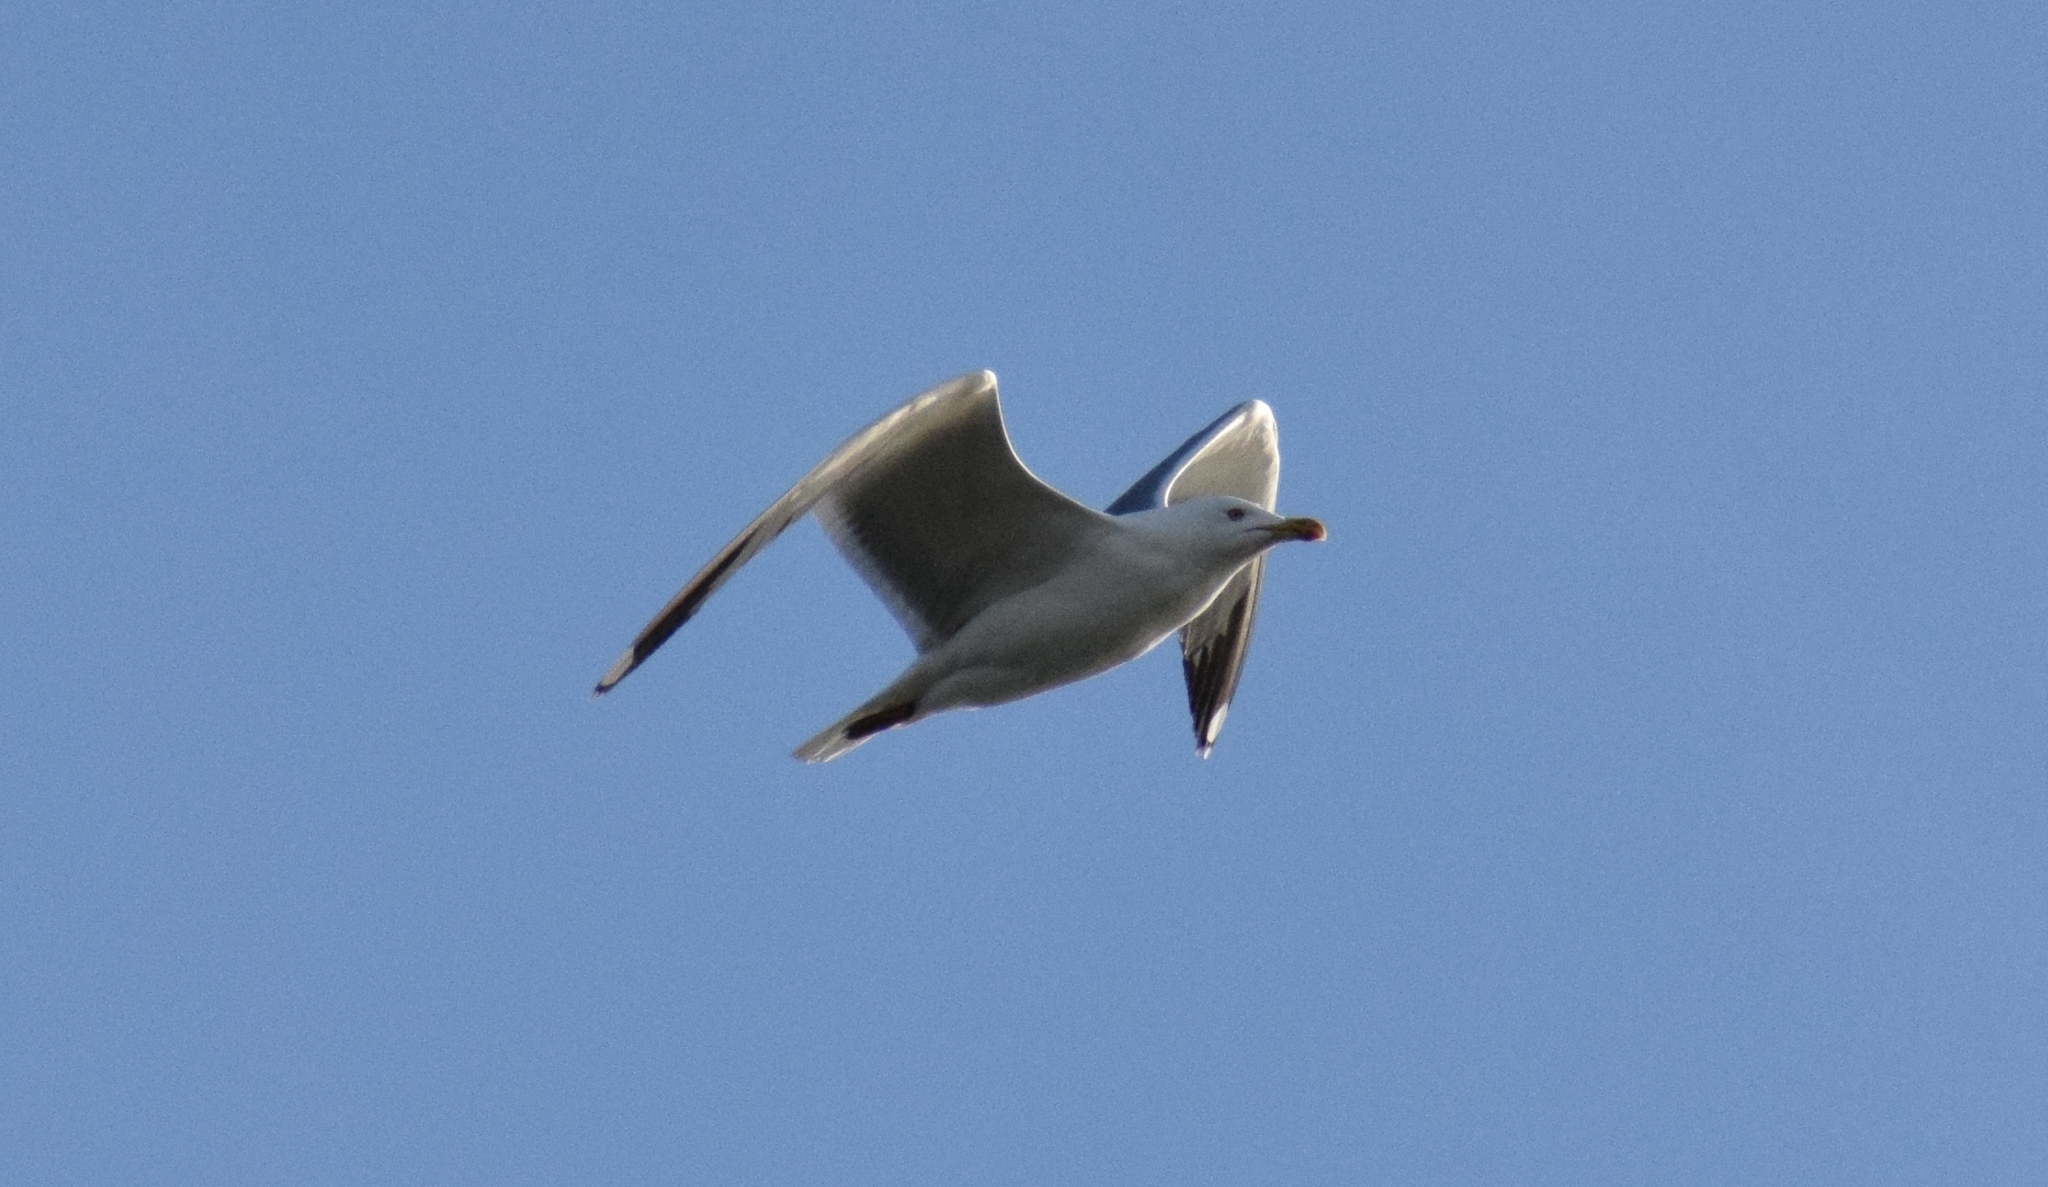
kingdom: Animalia
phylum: Chordata
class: Aves
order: Charadriiformes
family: Laridae
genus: Larus
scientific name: Larus michahellis
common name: Yellow-legged gull
